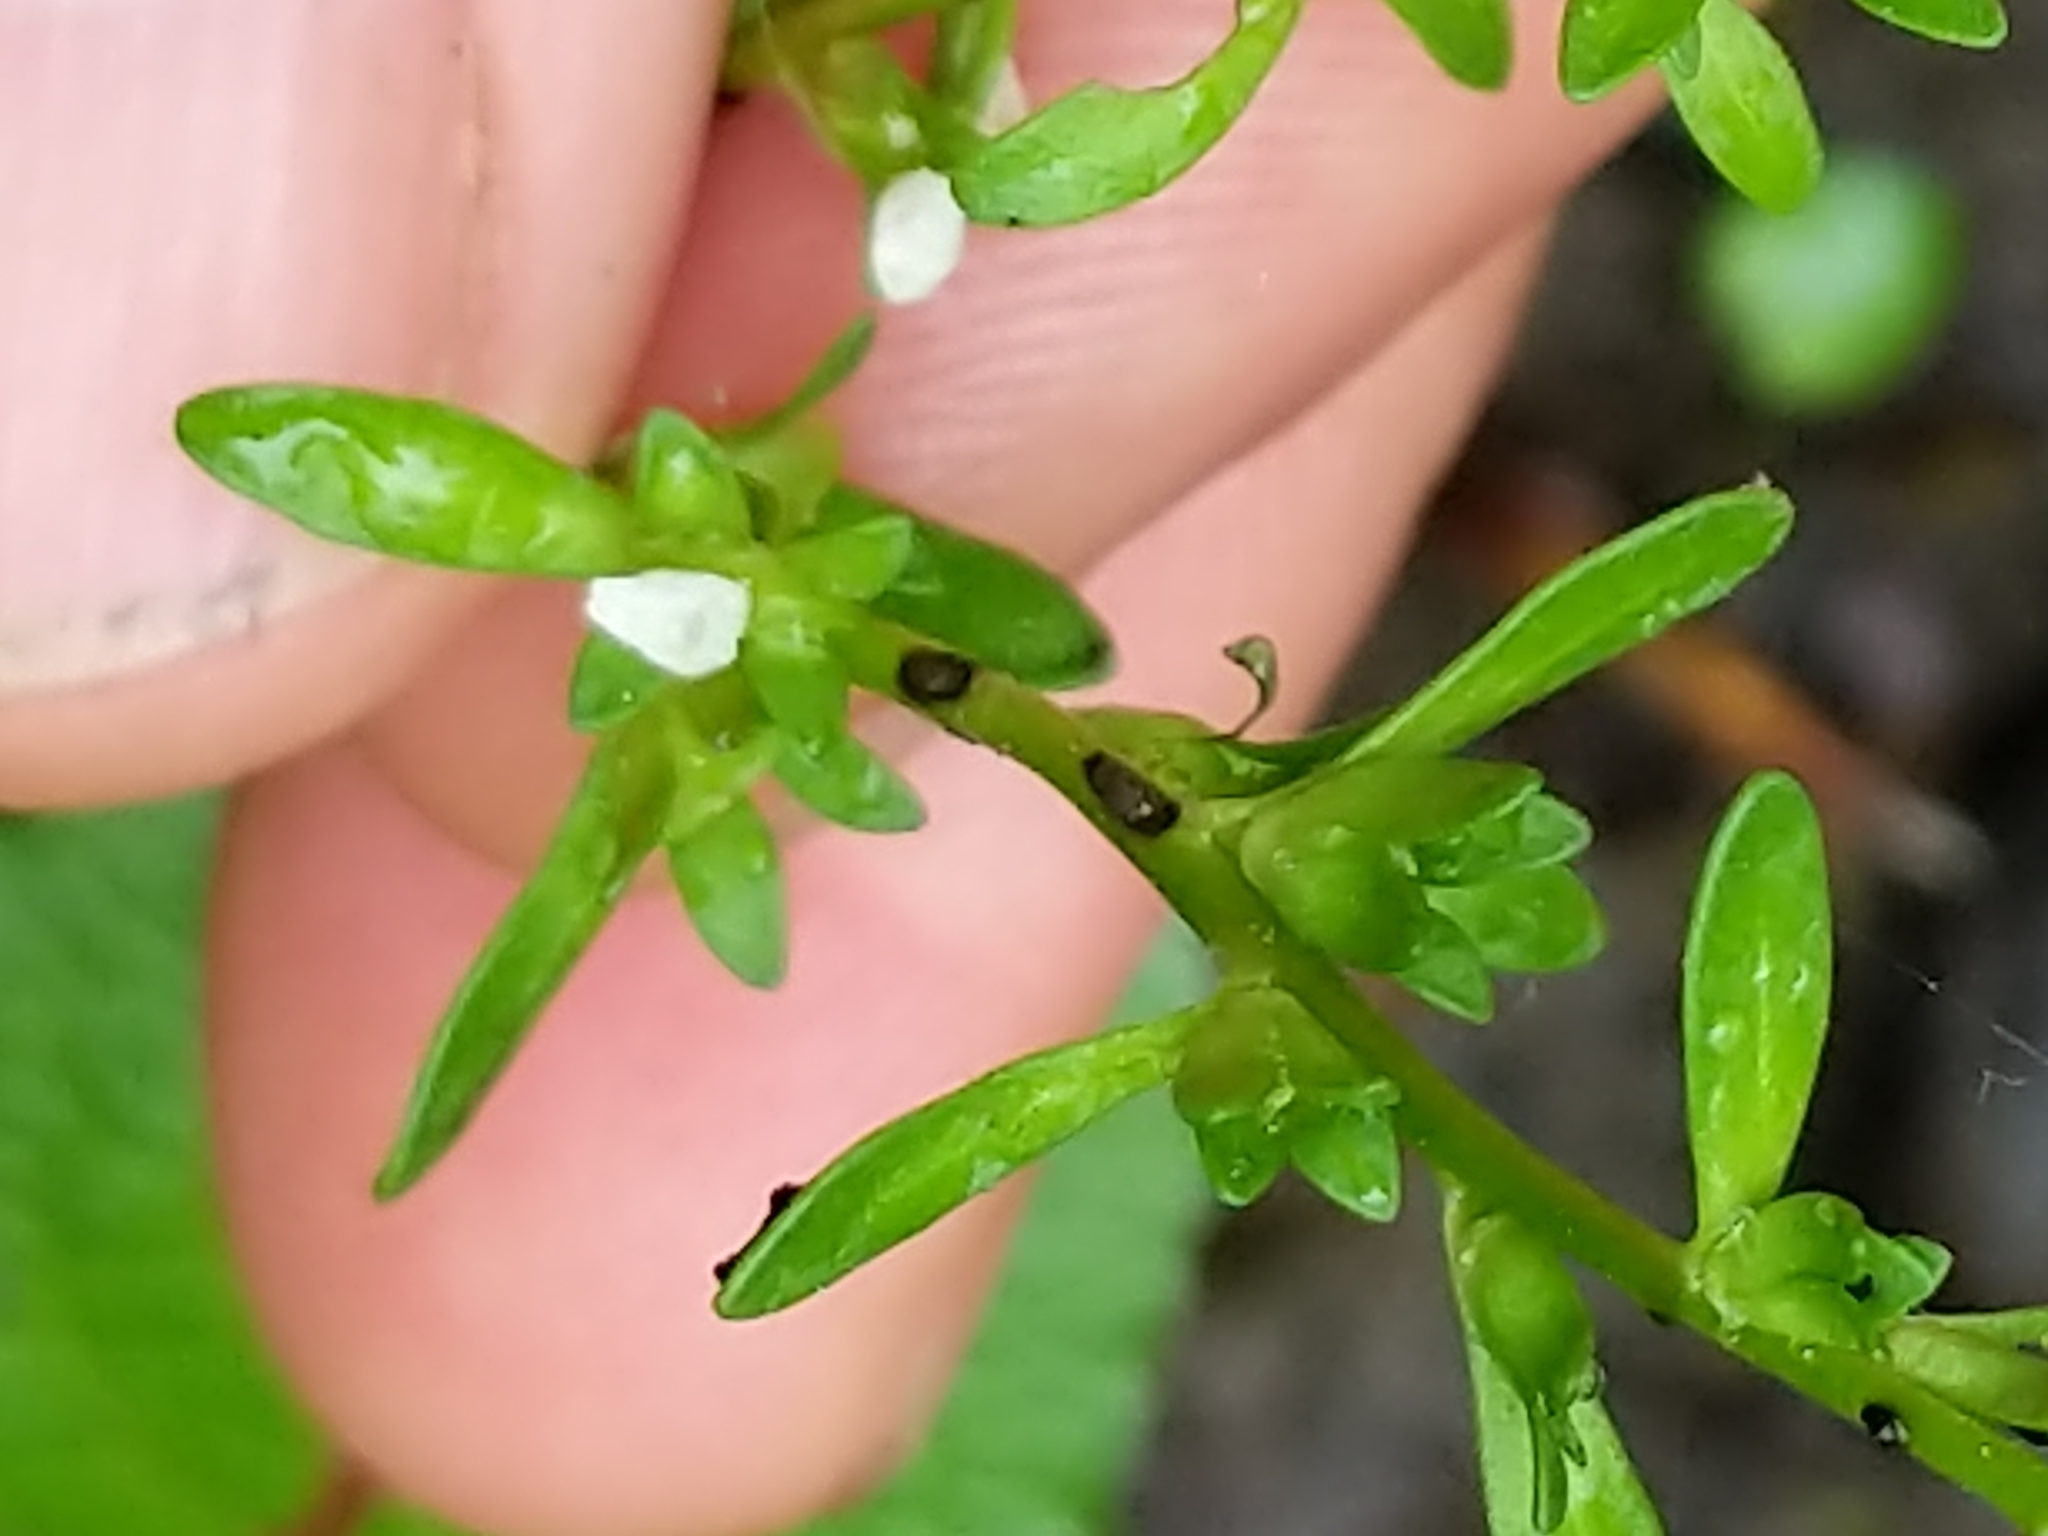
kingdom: Plantae
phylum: Tracheophyta
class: Magnoliopsida
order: Lamiales
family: Plantaginaceae
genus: Veronica
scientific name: Veronica peregrina
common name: Neckweed
